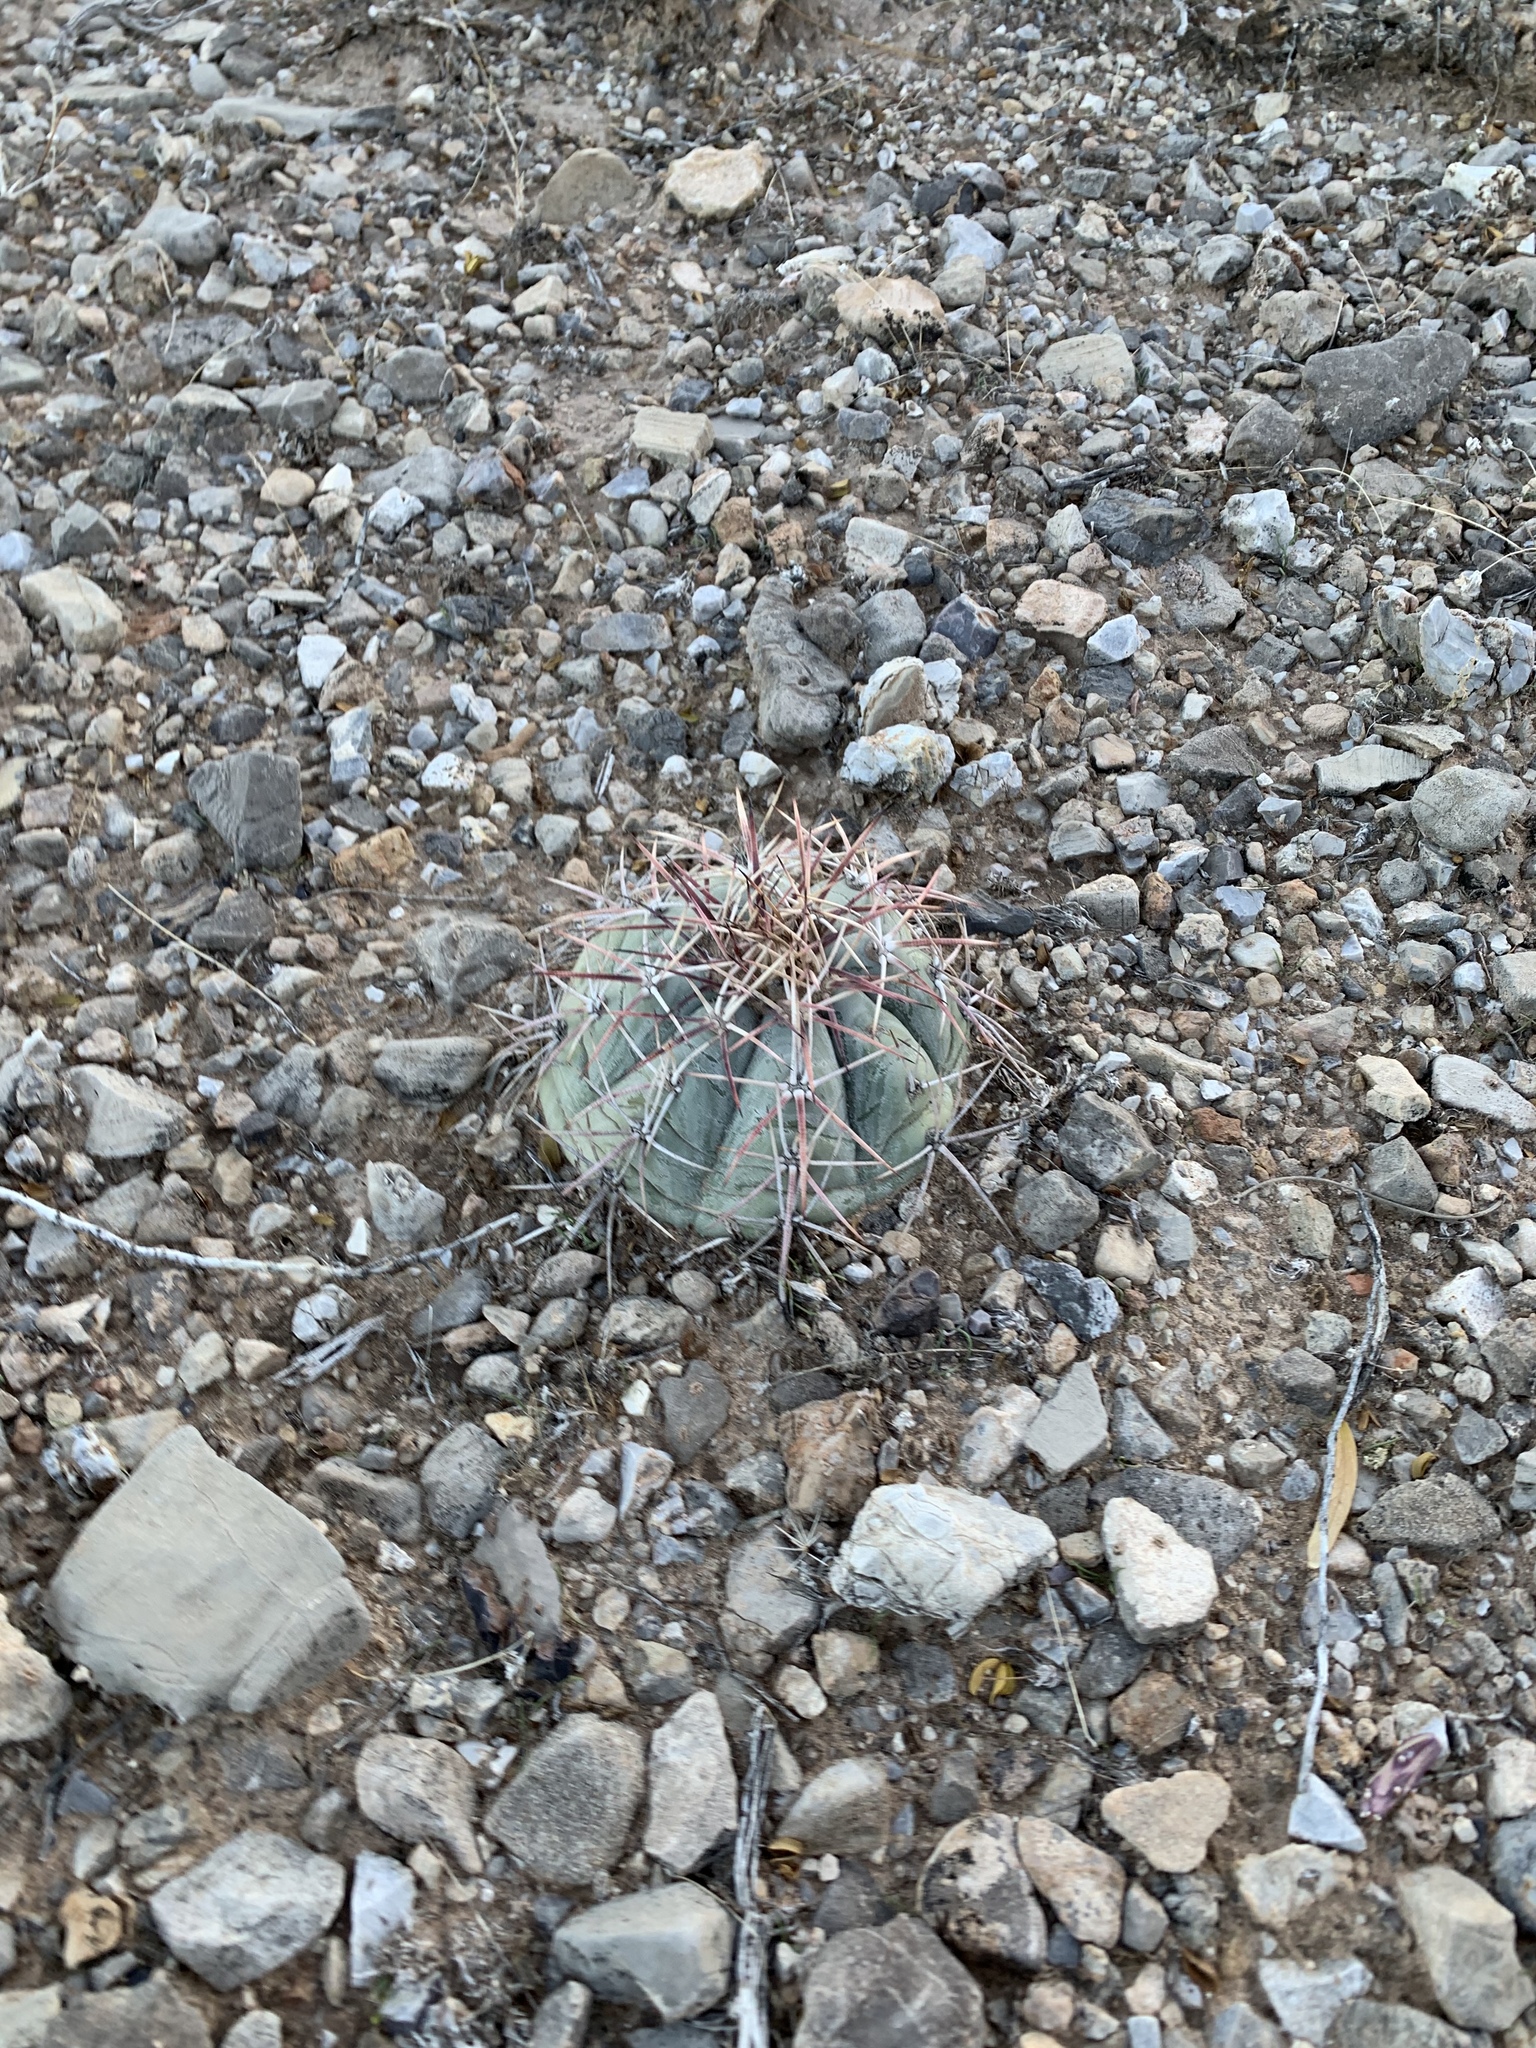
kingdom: Plantae
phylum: Tracheophyta
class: Magnoliopsida
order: Caryophyllales
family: Cactaceae
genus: Echinocactus
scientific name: Echinocactus horizonthalonius
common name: Devilshead
